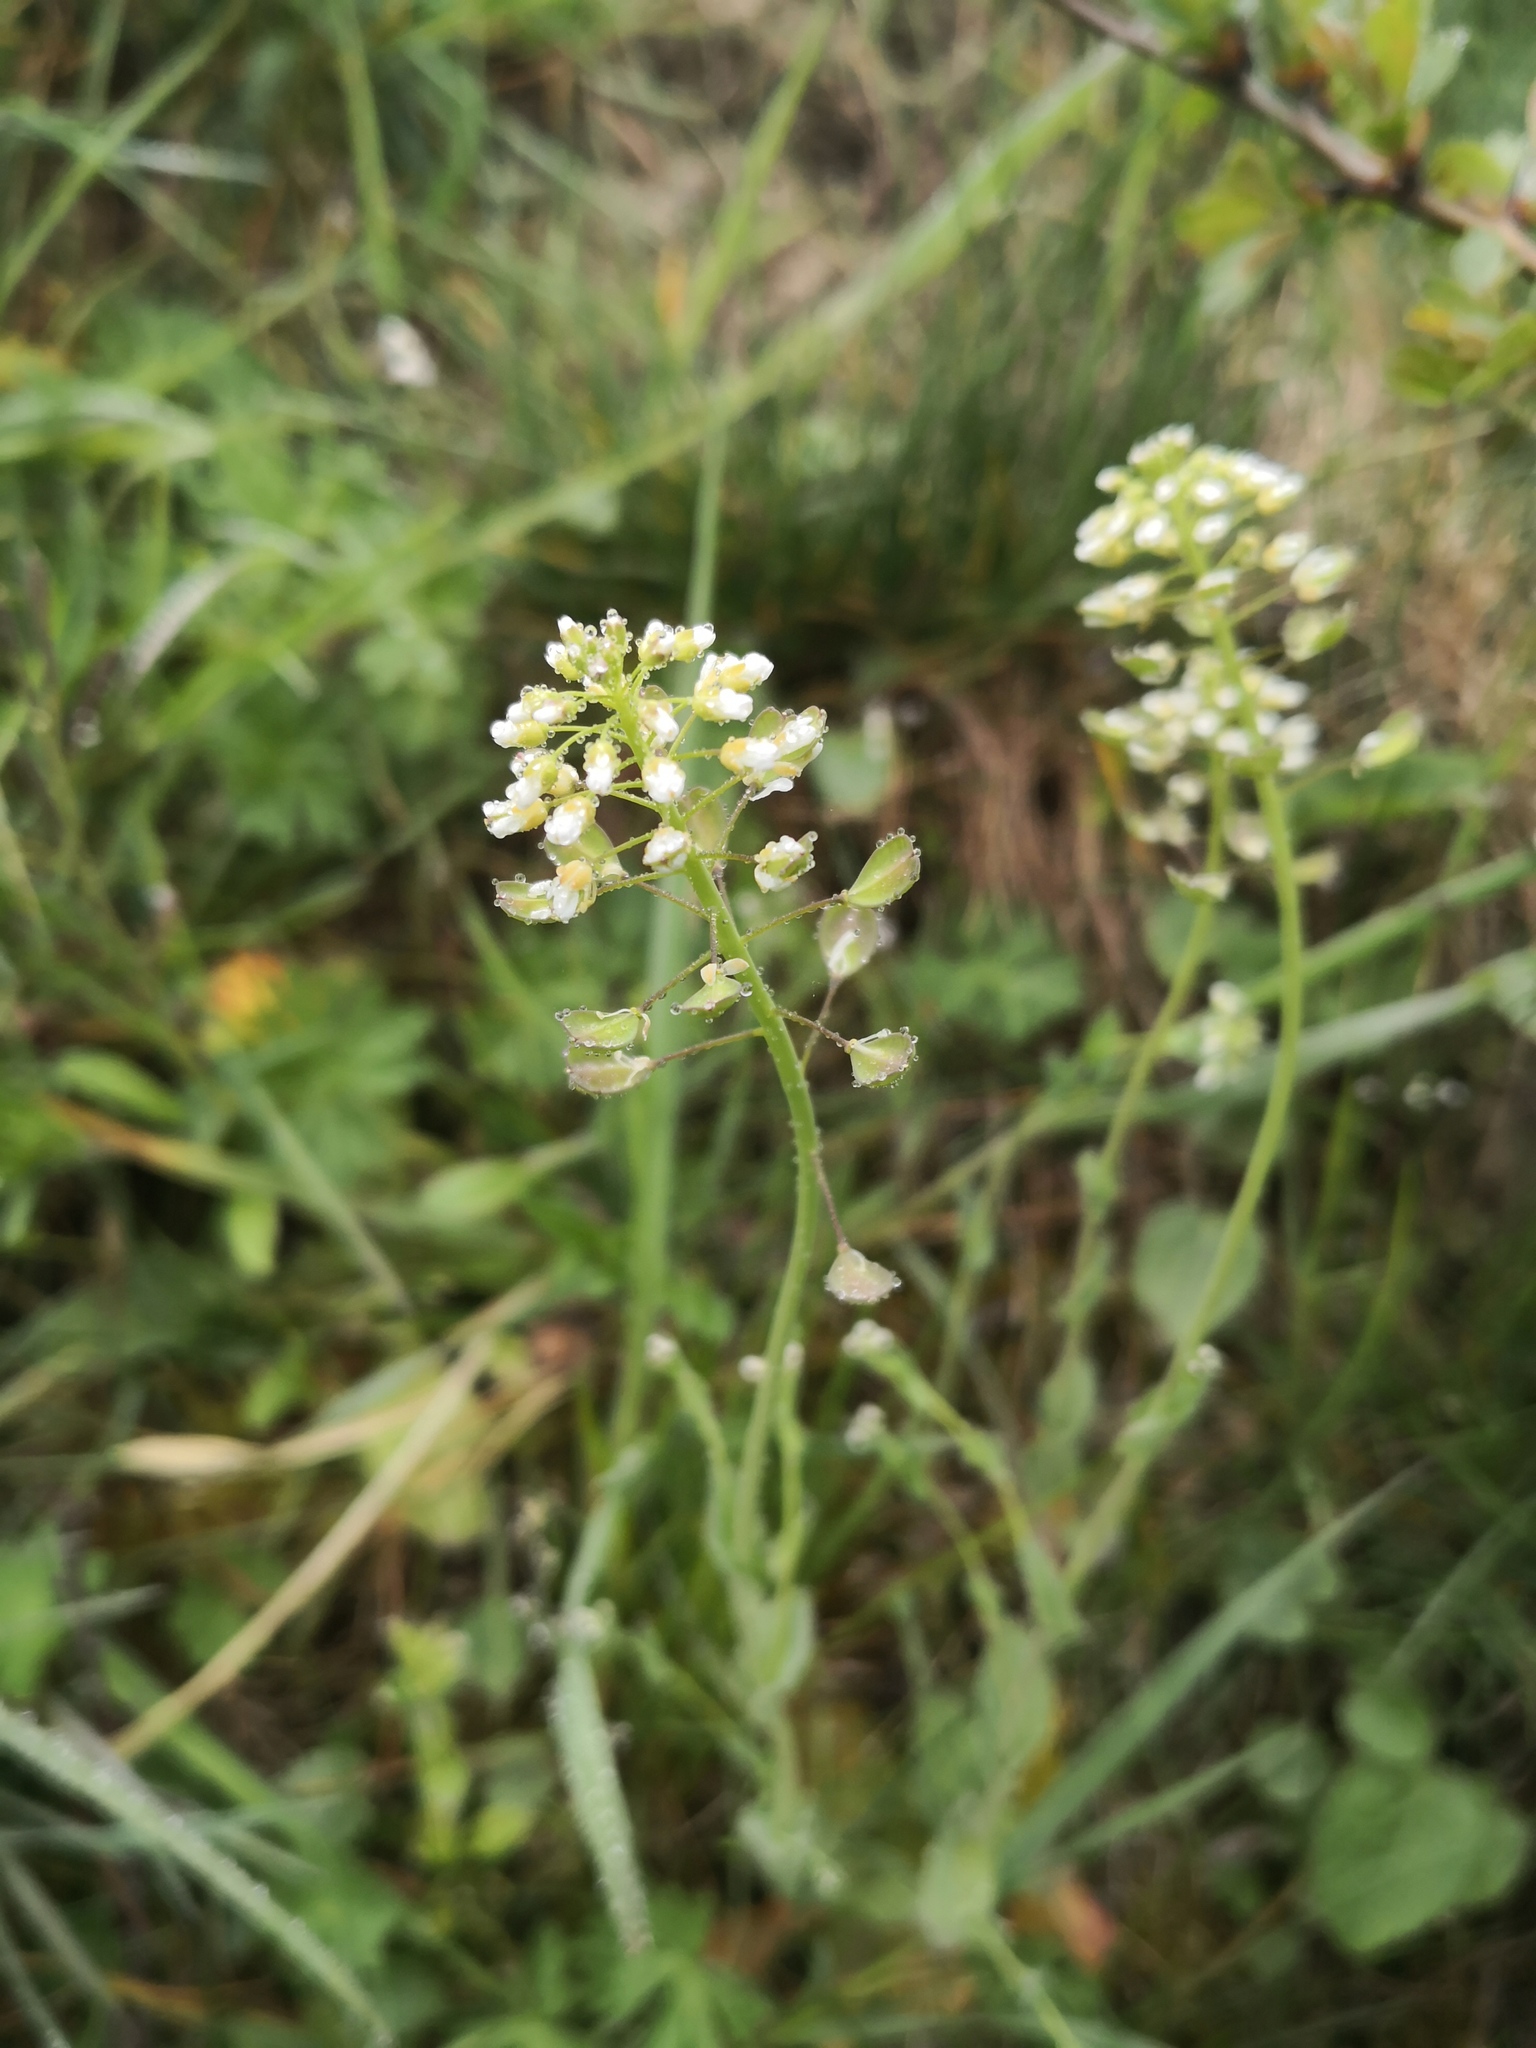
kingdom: Plantae
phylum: Tracheophyta
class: Magnoliopsida
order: Brassicales
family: Brassicaceae
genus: Noccaea
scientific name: Noccaea perfoliata
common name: Perfoliate pennycress
